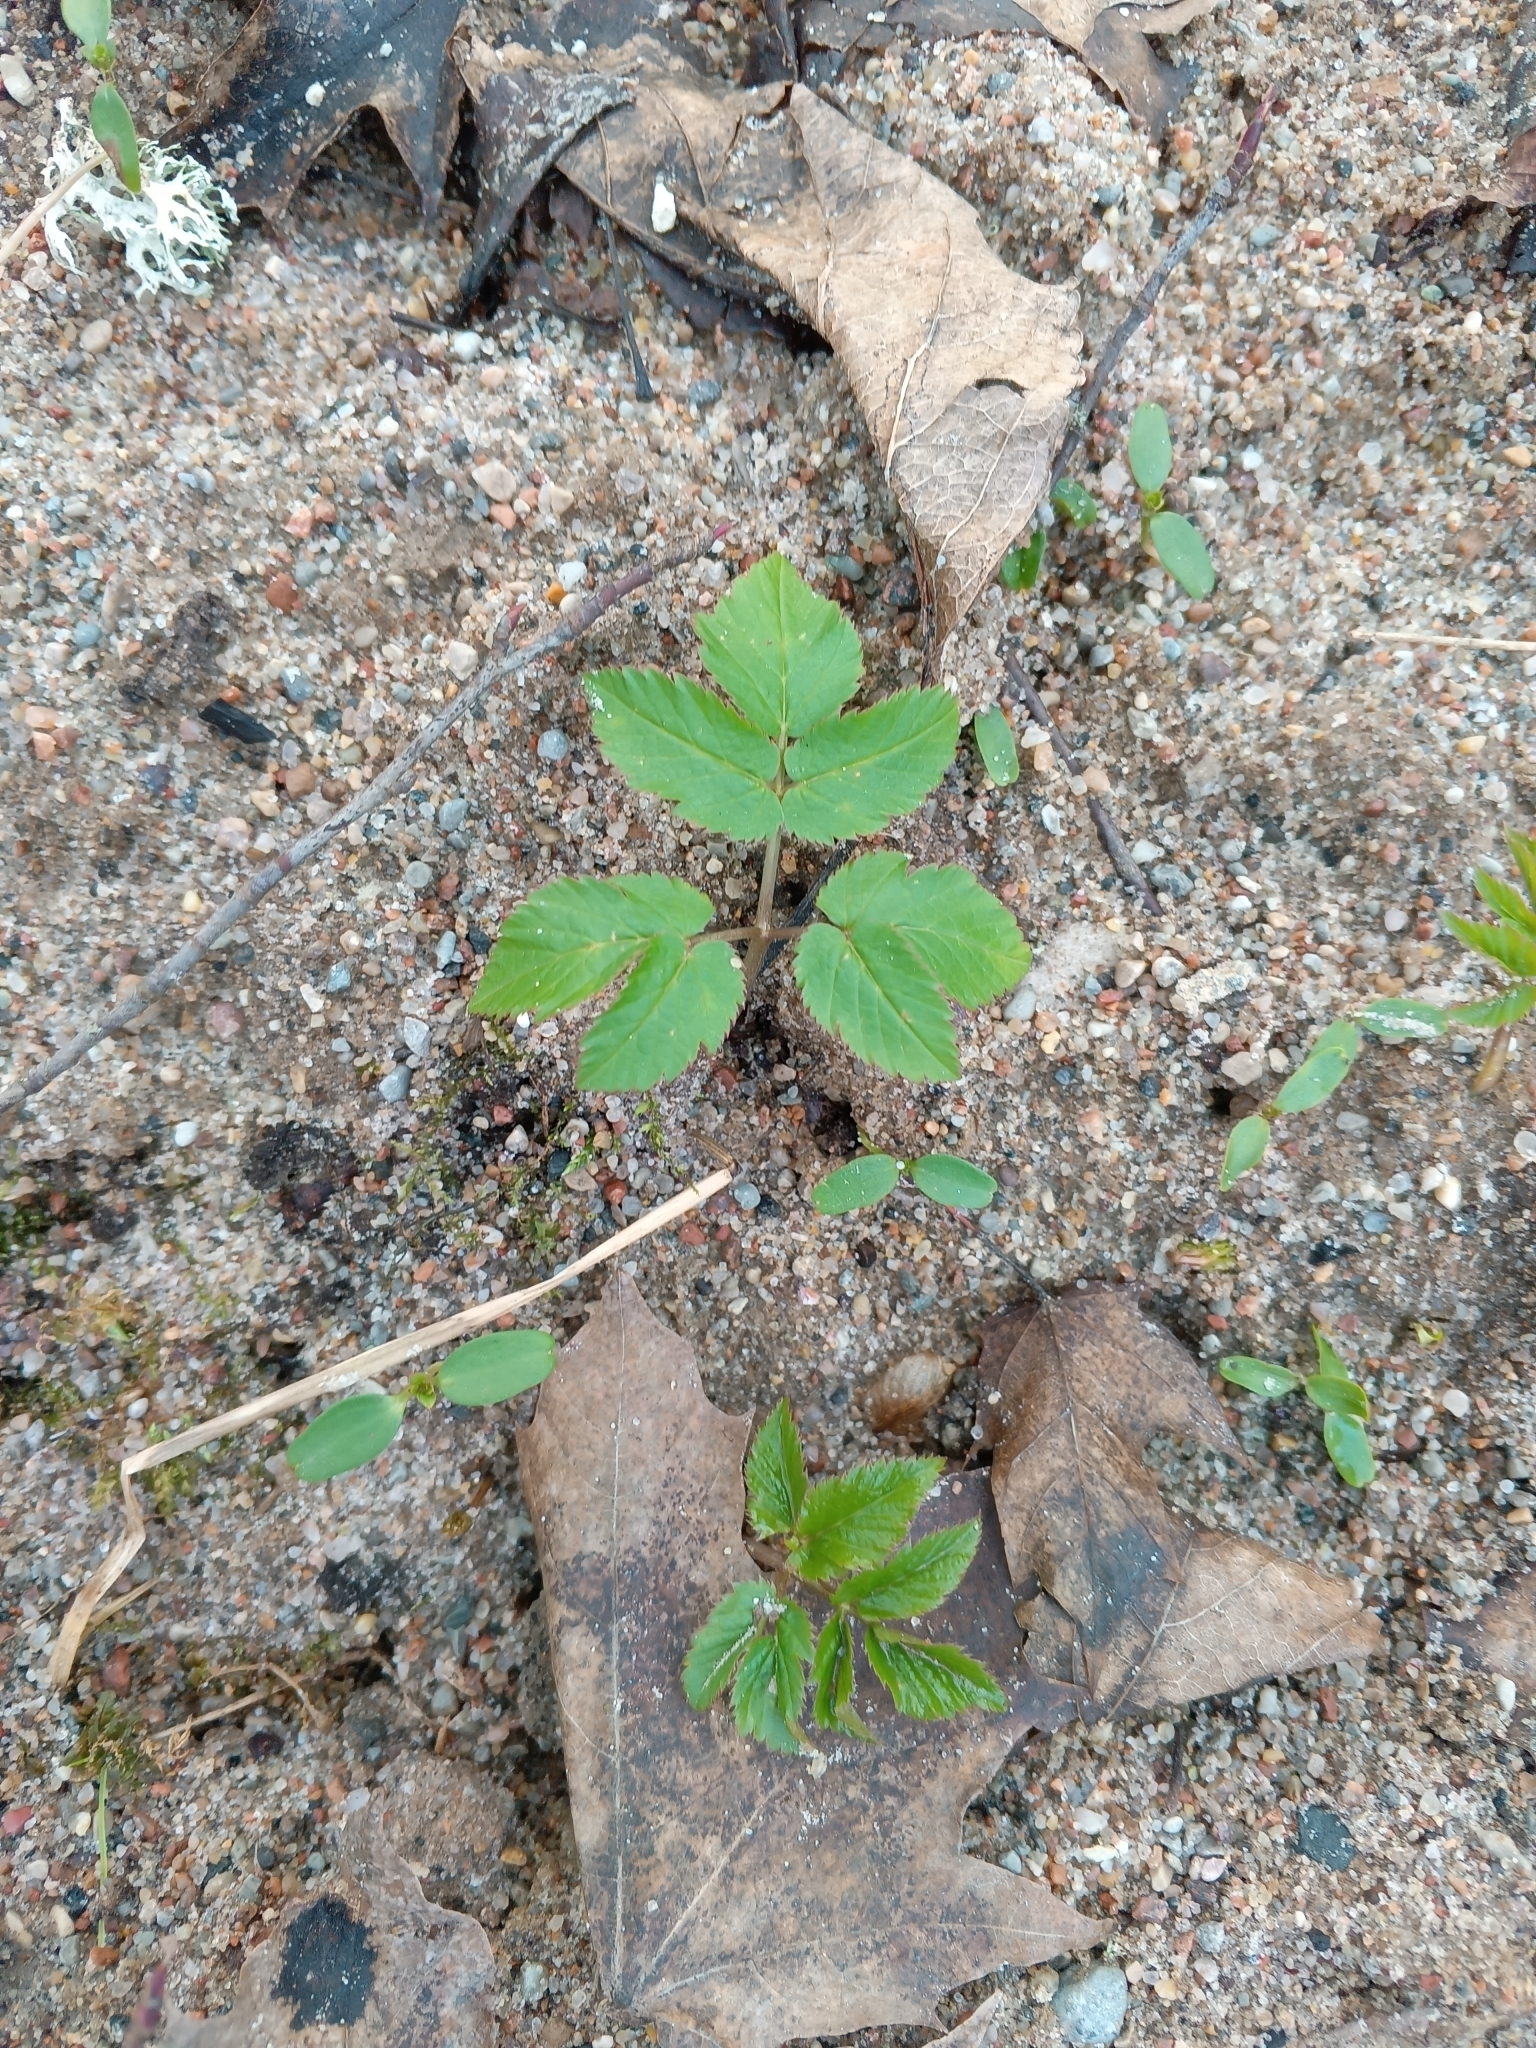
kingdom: Plantae
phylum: Tracheophyta
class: Magnoliopsida
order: Apiales
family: Apiaceae
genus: Aegopodium
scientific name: Aegopodium podagraria
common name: Ground-elder
